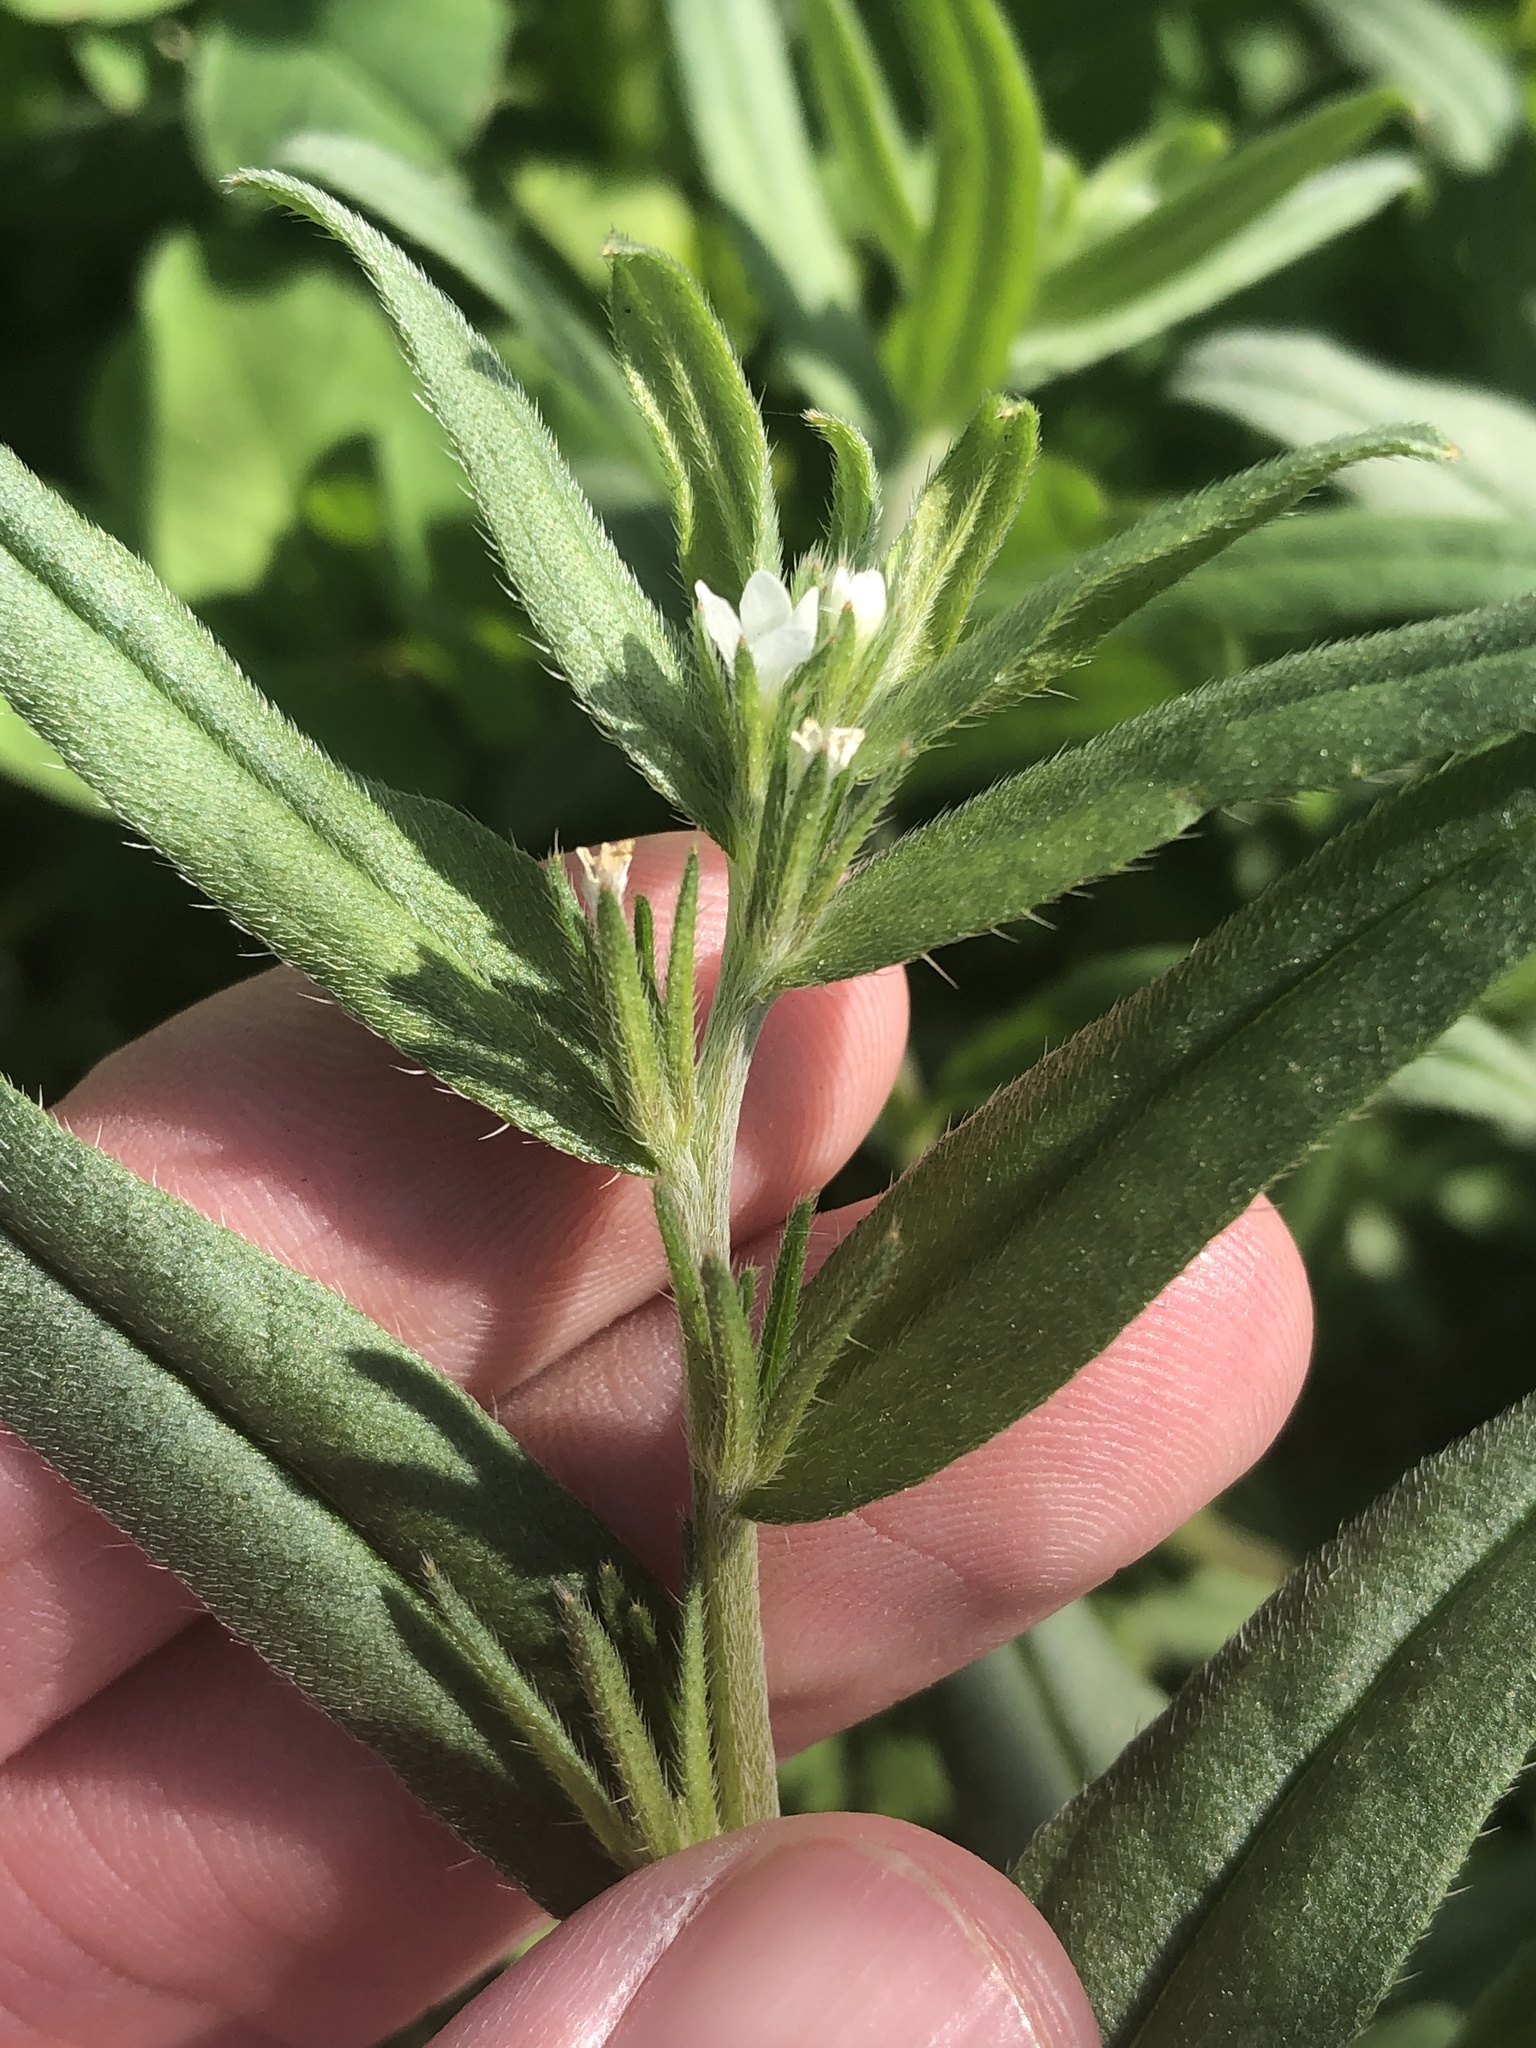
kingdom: Plantae
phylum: Tracheophyta
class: Magnoliopsida
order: Boraginales
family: Boraginaceae
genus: Buglossoides
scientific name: Buglossoides arvensis
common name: Corn gromwell
